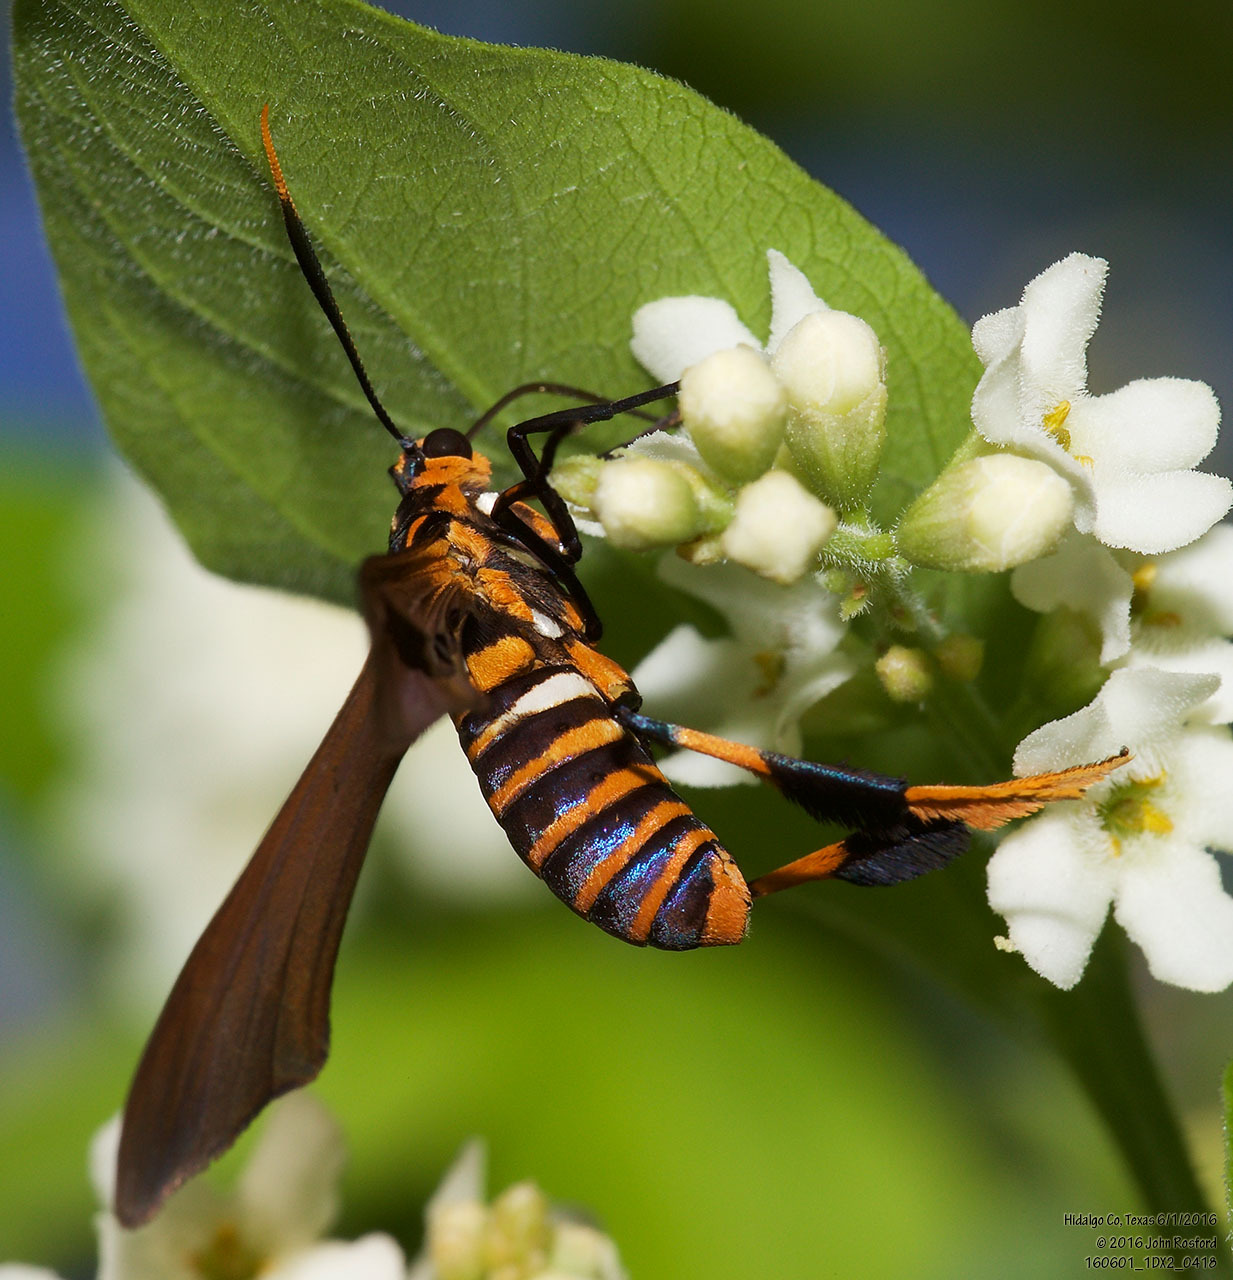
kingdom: Animalia
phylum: Arthropoda
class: Insecta
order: Lepidoptera
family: Erebidae
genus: Horama
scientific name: Horama panthalon
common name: Texas wasp moth
